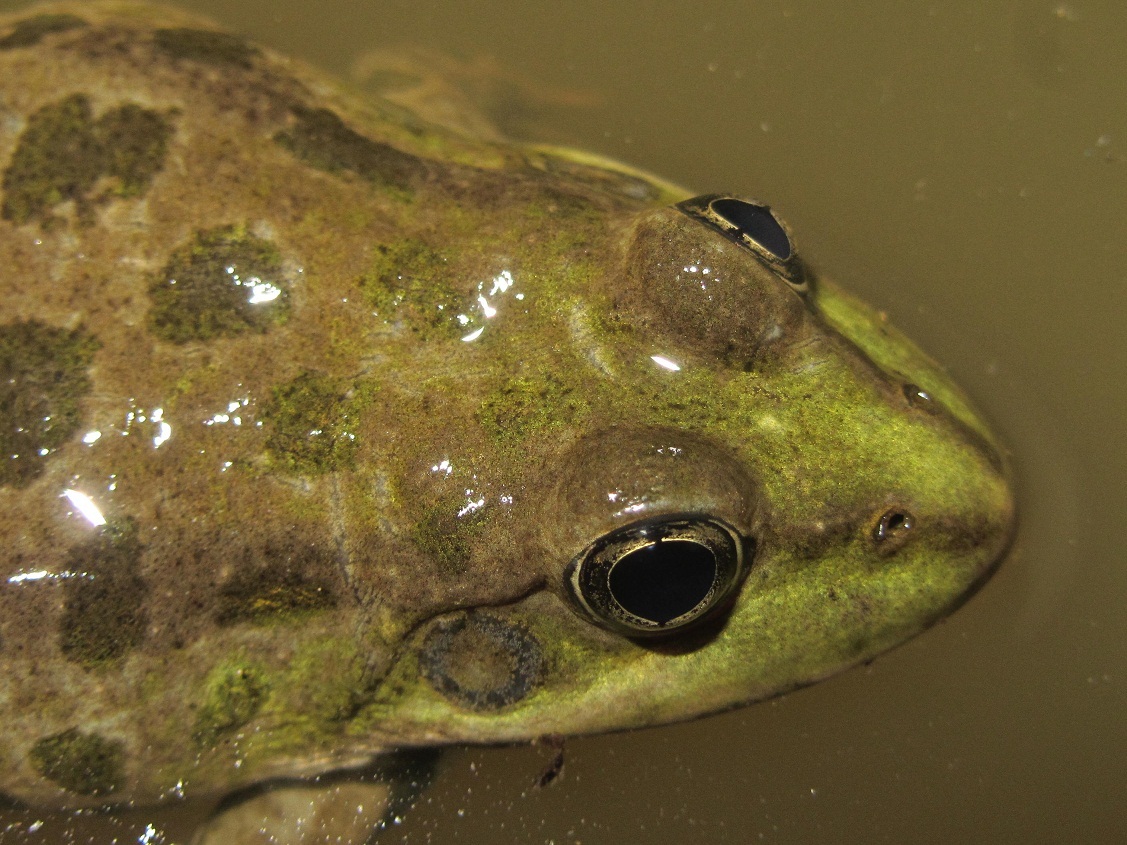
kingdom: Animalia
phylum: Chordata
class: Amphibia
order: Anura
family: Ranidae
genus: Pelophylax
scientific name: Pelophylax ridibundus
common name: Marsh frog
